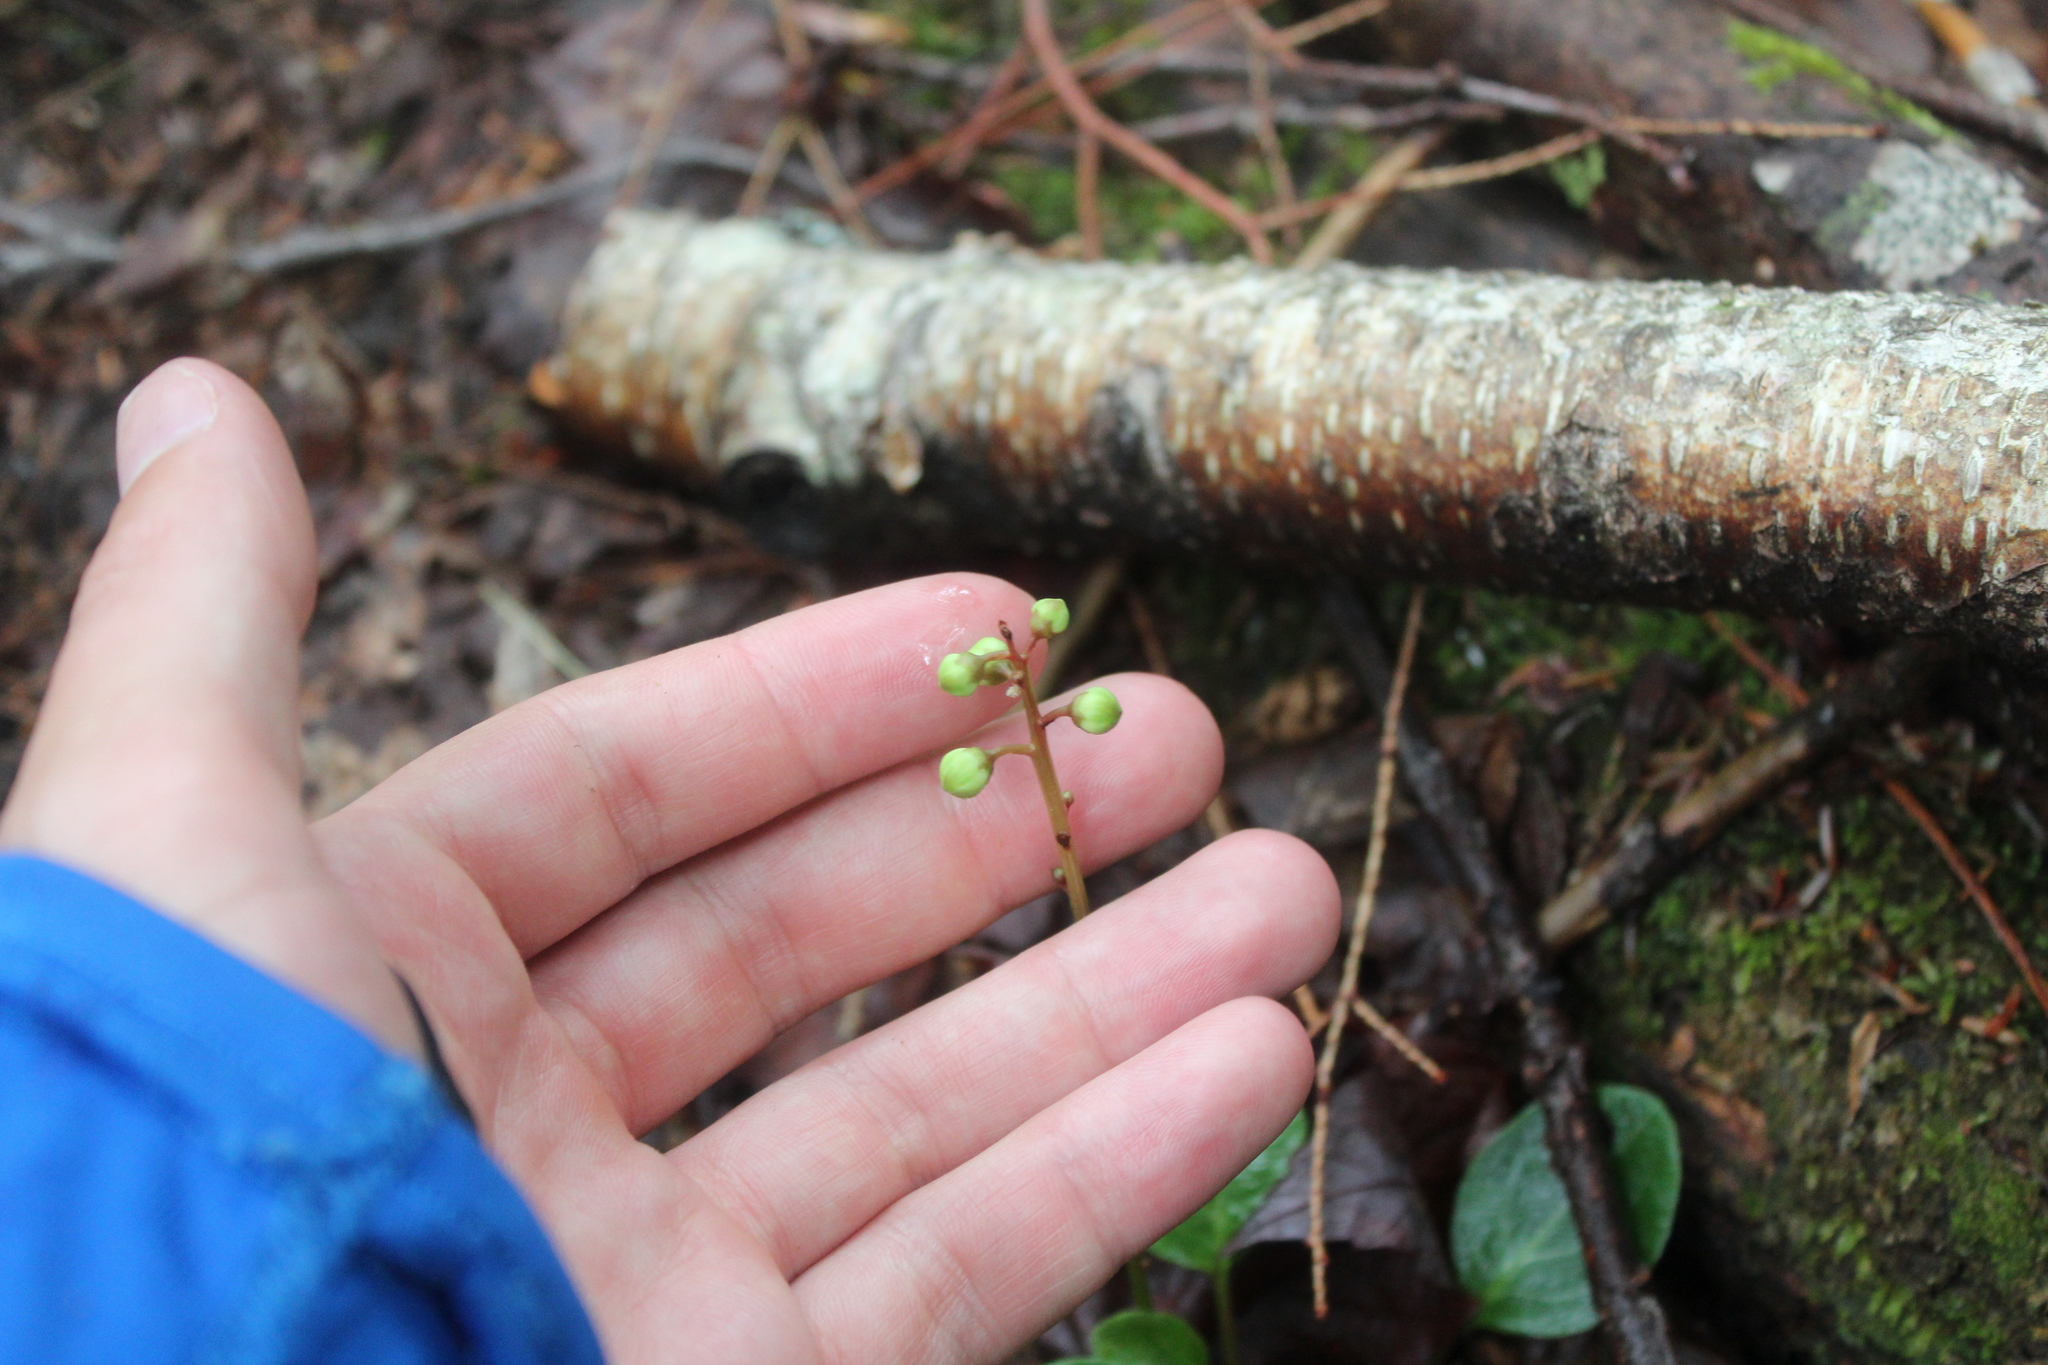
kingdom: Plantae
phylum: Tracheophyta
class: Magnoliopsida
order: Ericales
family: Ericaceae
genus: Pyrola
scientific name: Pyrola chlorantha
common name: Green wintergreen
